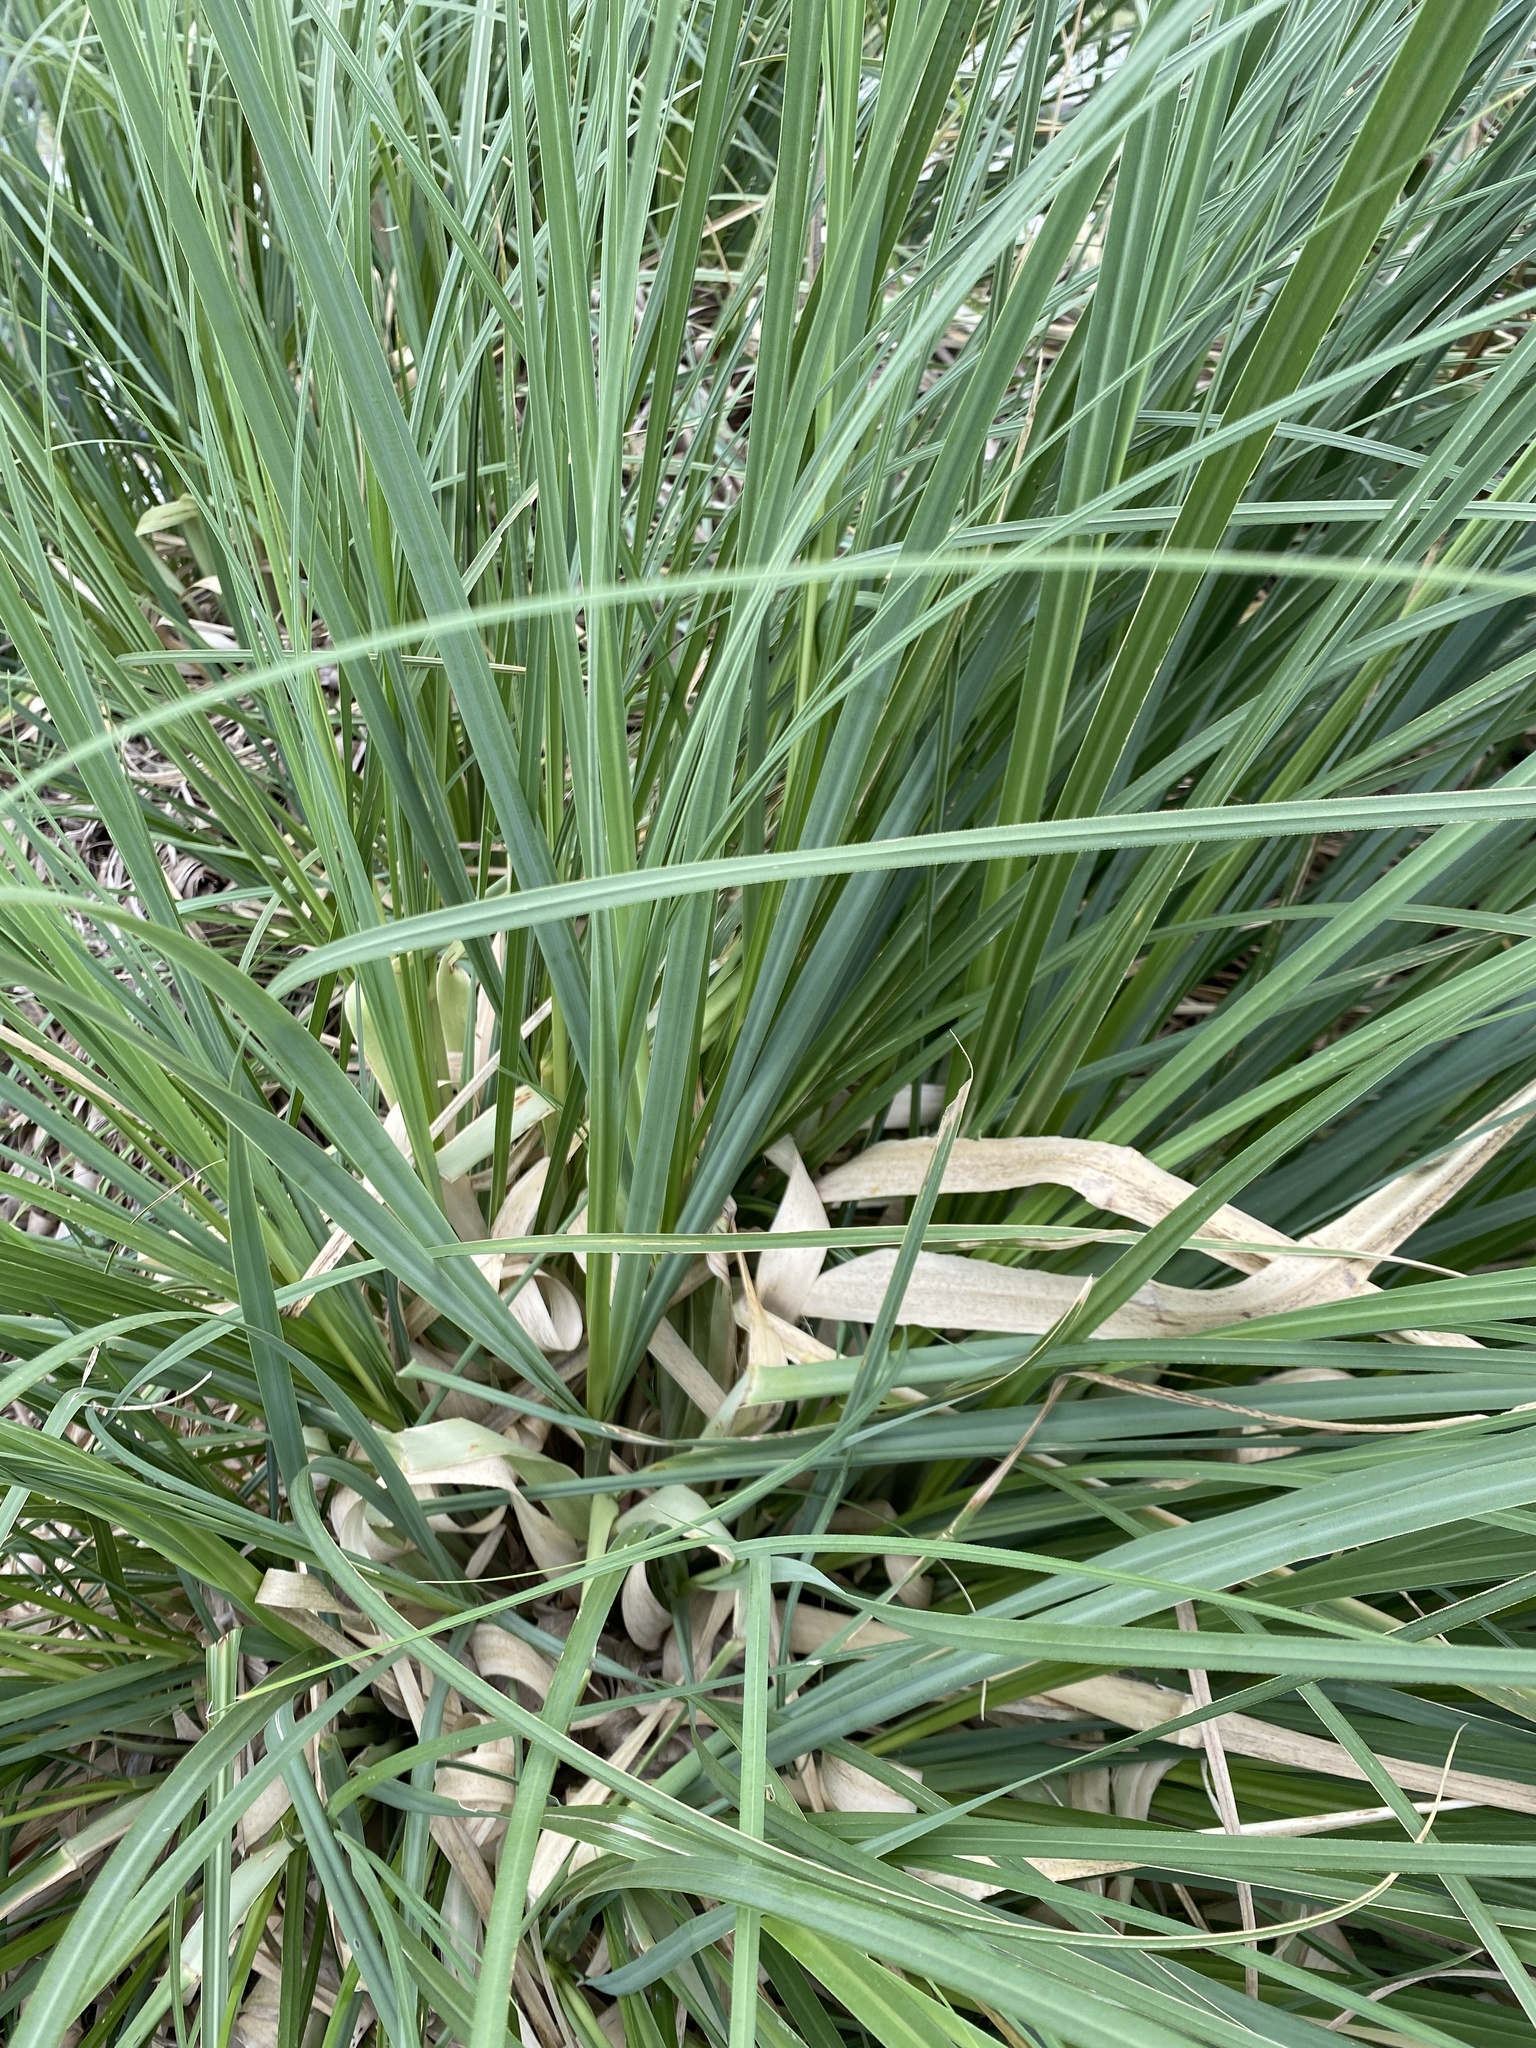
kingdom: Plantae
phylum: Tracheophyta
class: Liliopsida
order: Poales
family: Poaceae
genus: Cortaderia
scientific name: Cortaderia selloana
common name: Uruguayan pampas grass
